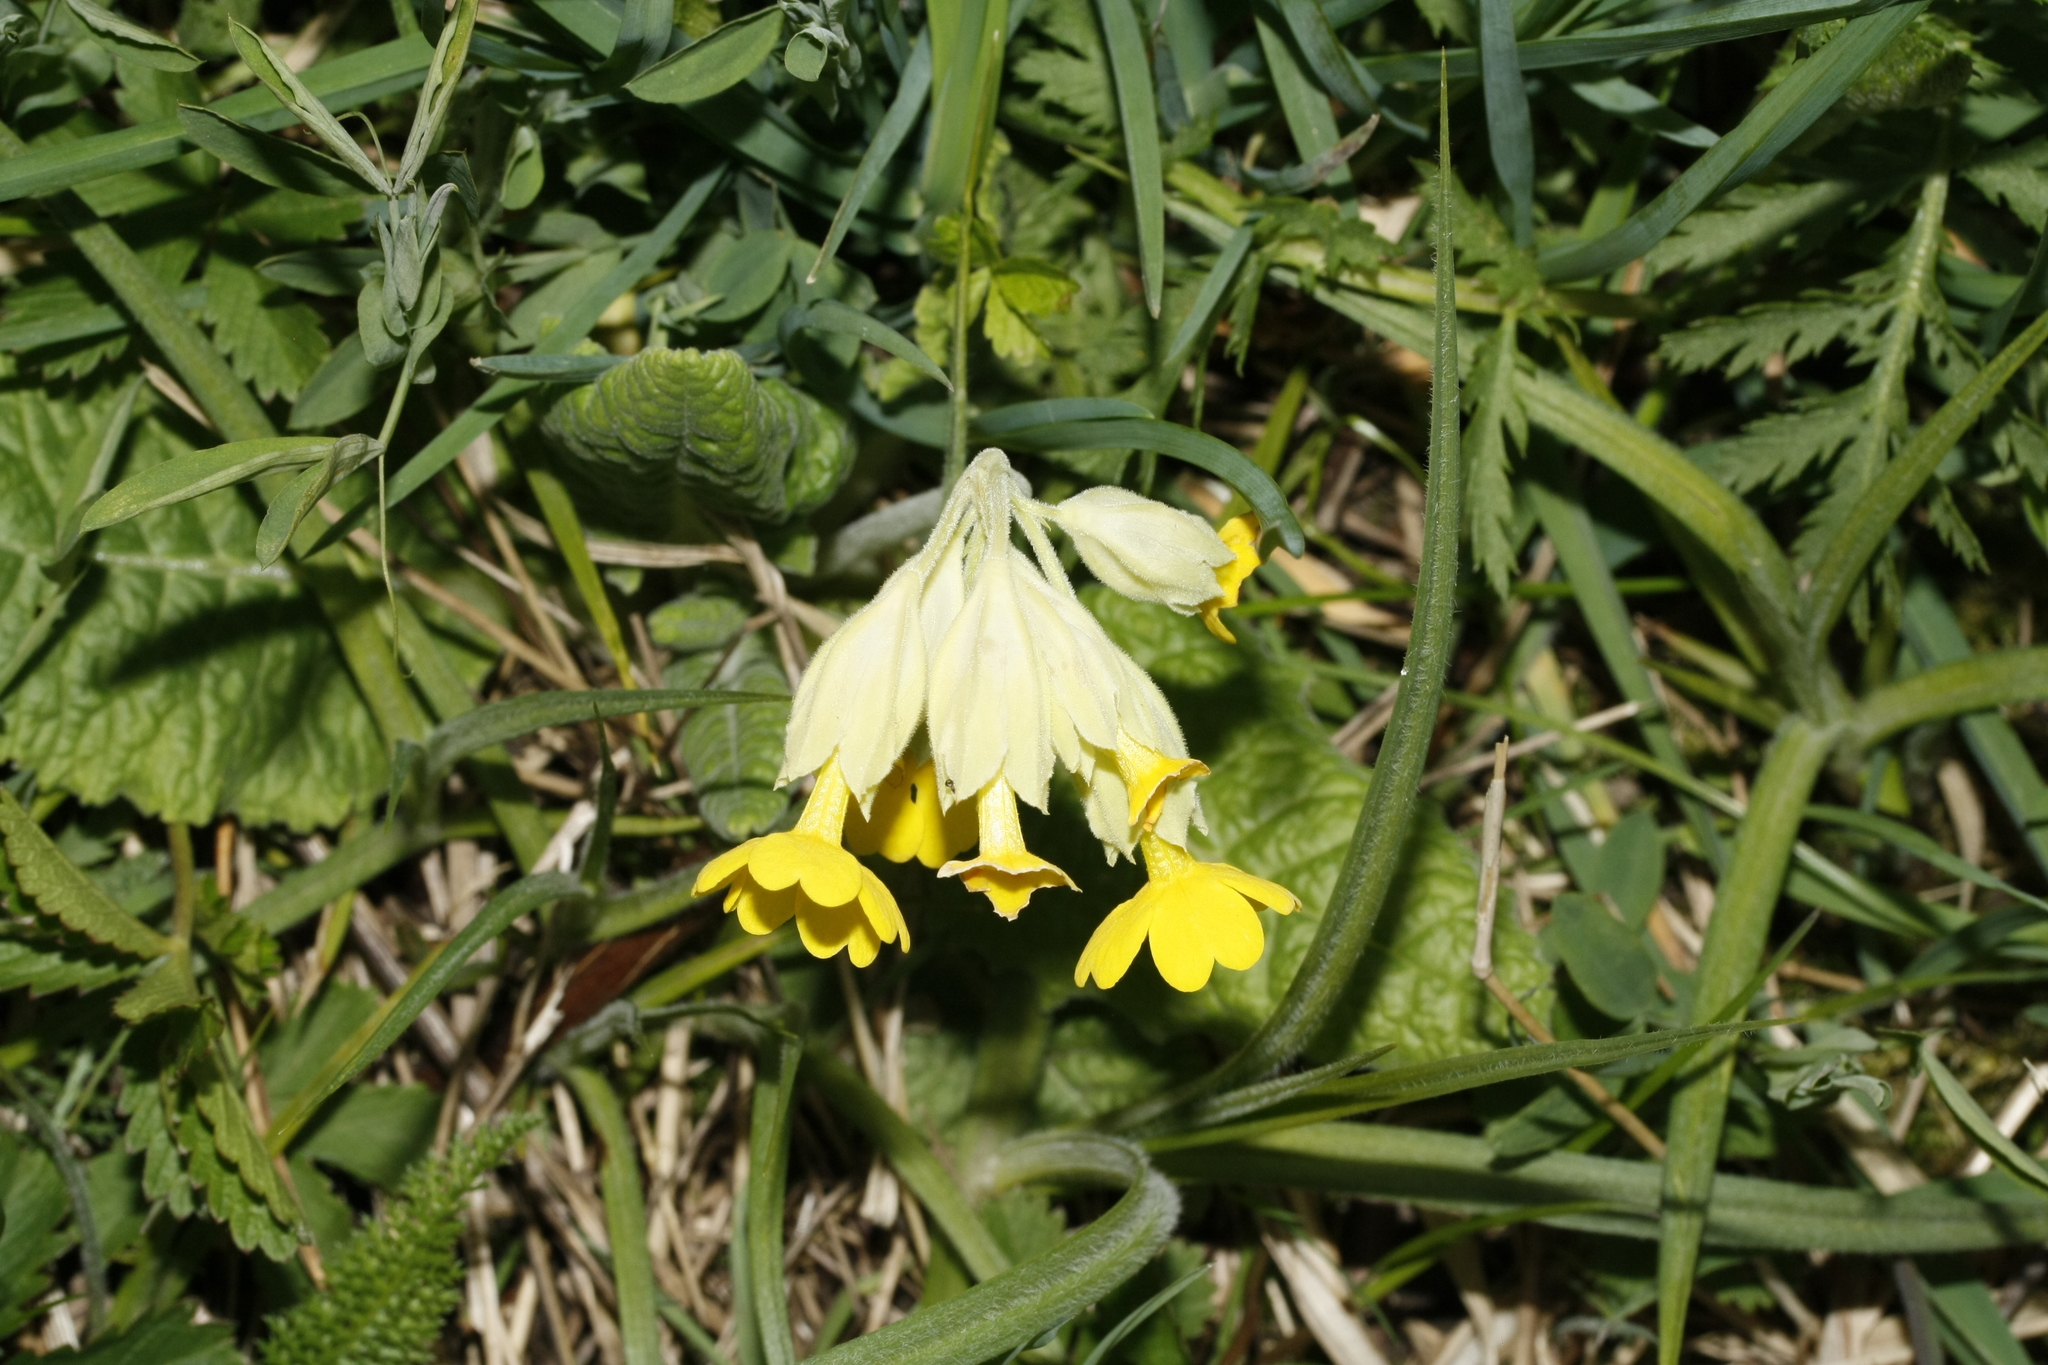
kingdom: Plantae
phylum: Tracheophyta
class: Magnoliopsida
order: Ericales
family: Primulaceae
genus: Primula
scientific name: Primula veris
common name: Cowslip
